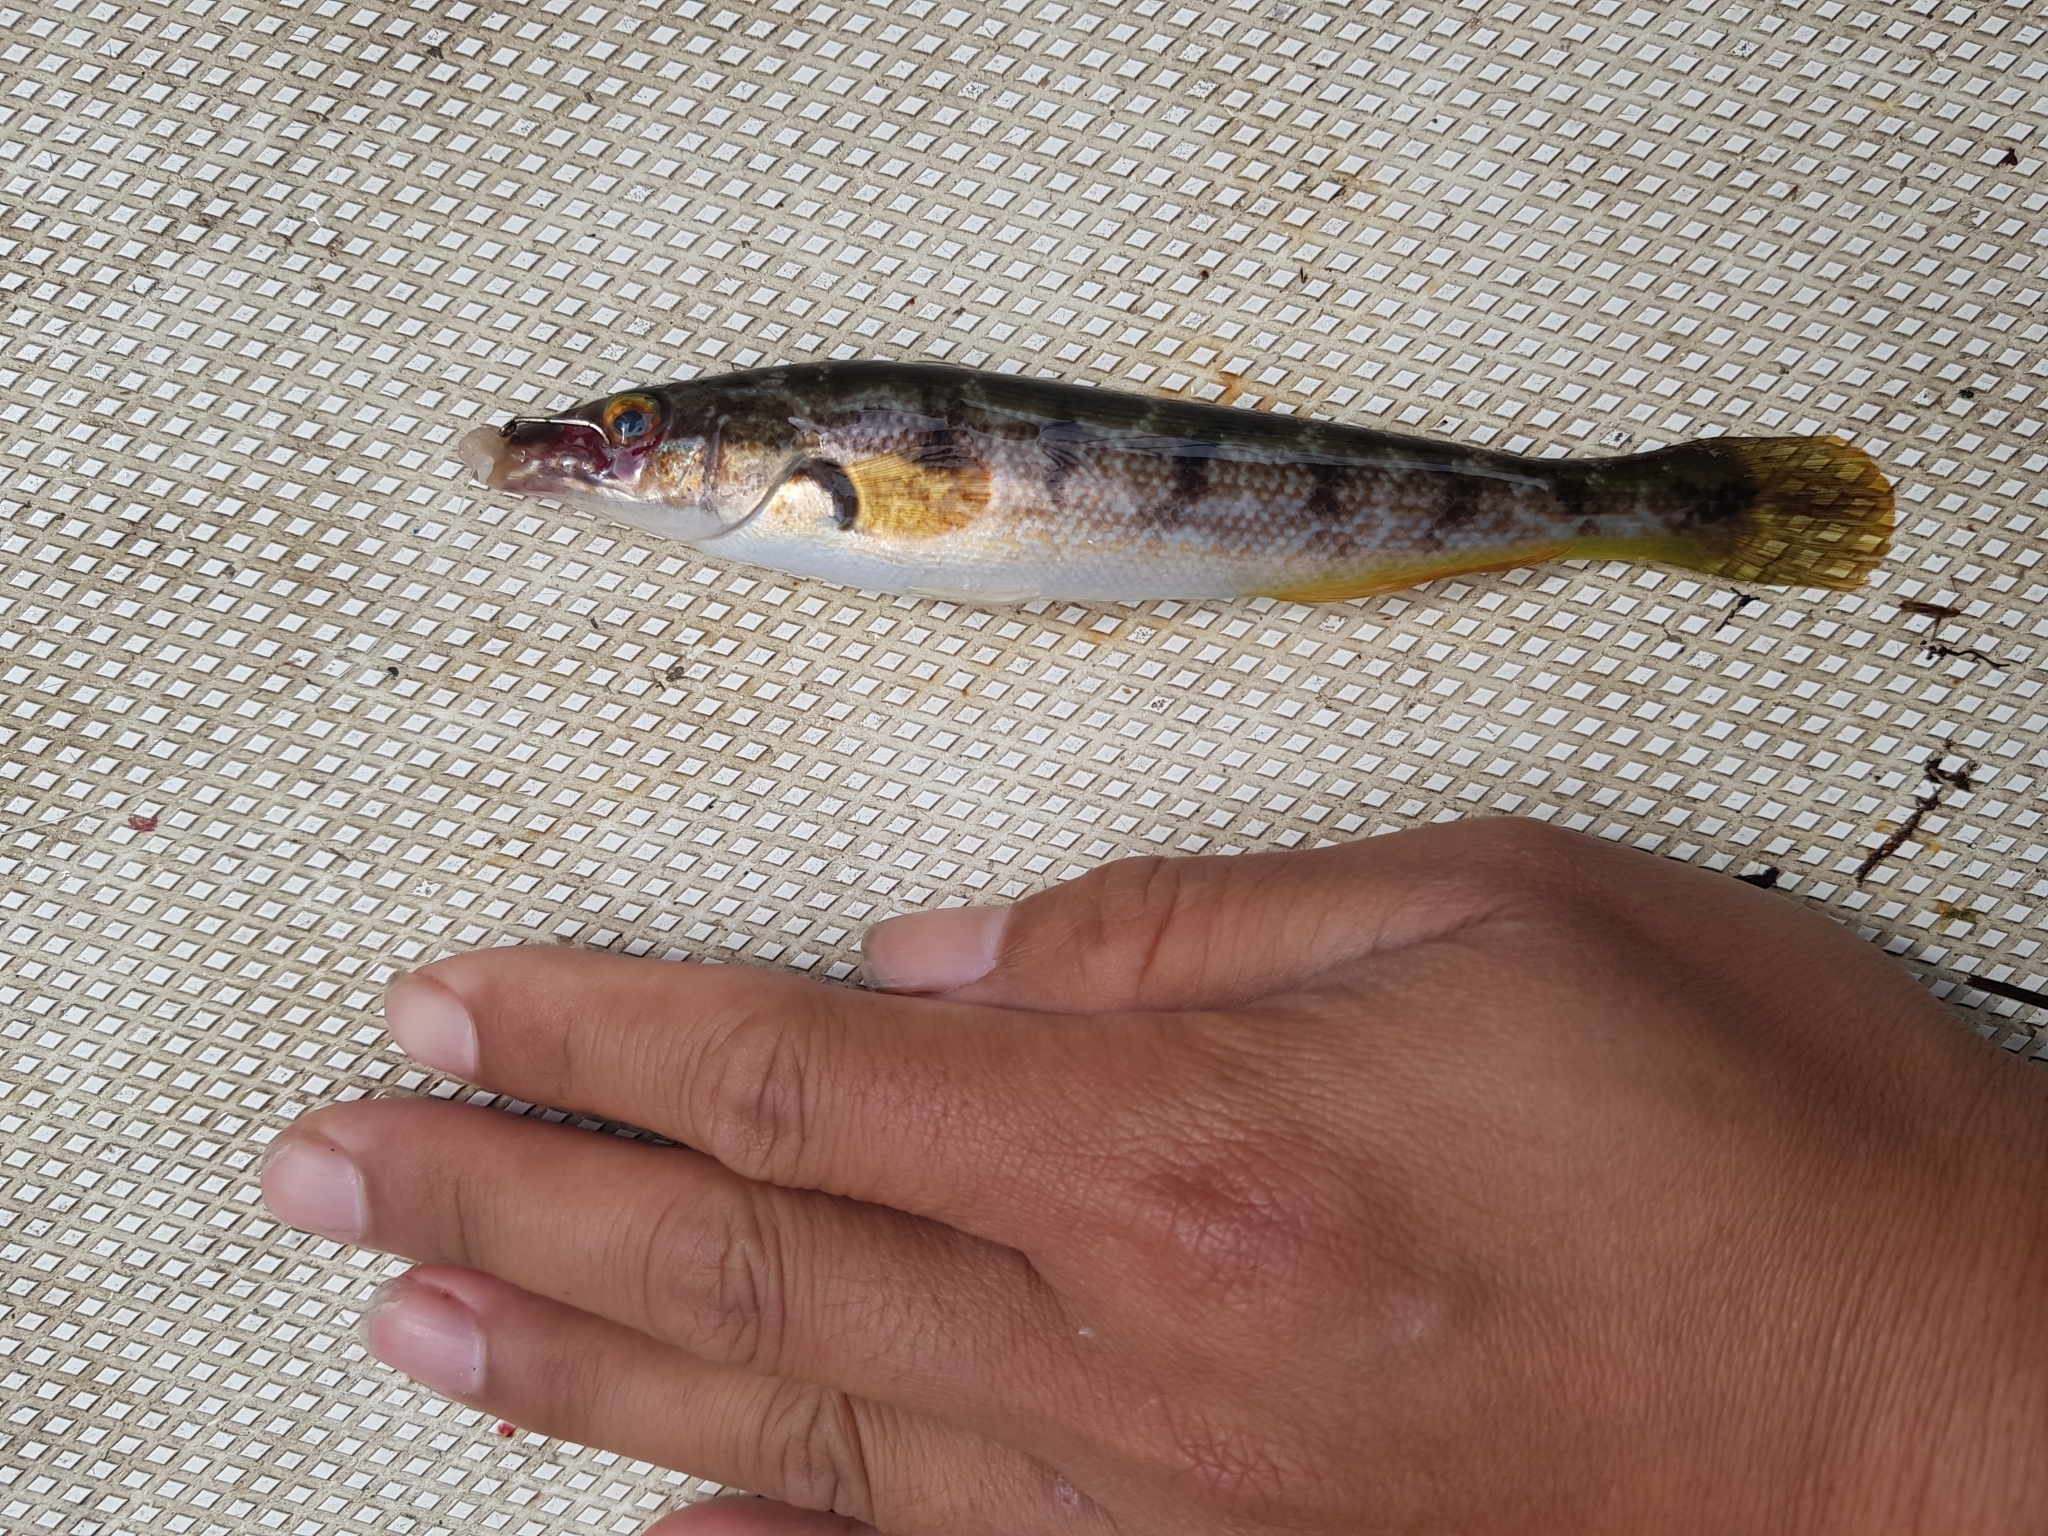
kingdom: Animalia
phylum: Chordata
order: Perciformes
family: Odacidae
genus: Haletta
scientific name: Haletta semifasciata
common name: Blue rock whiting
